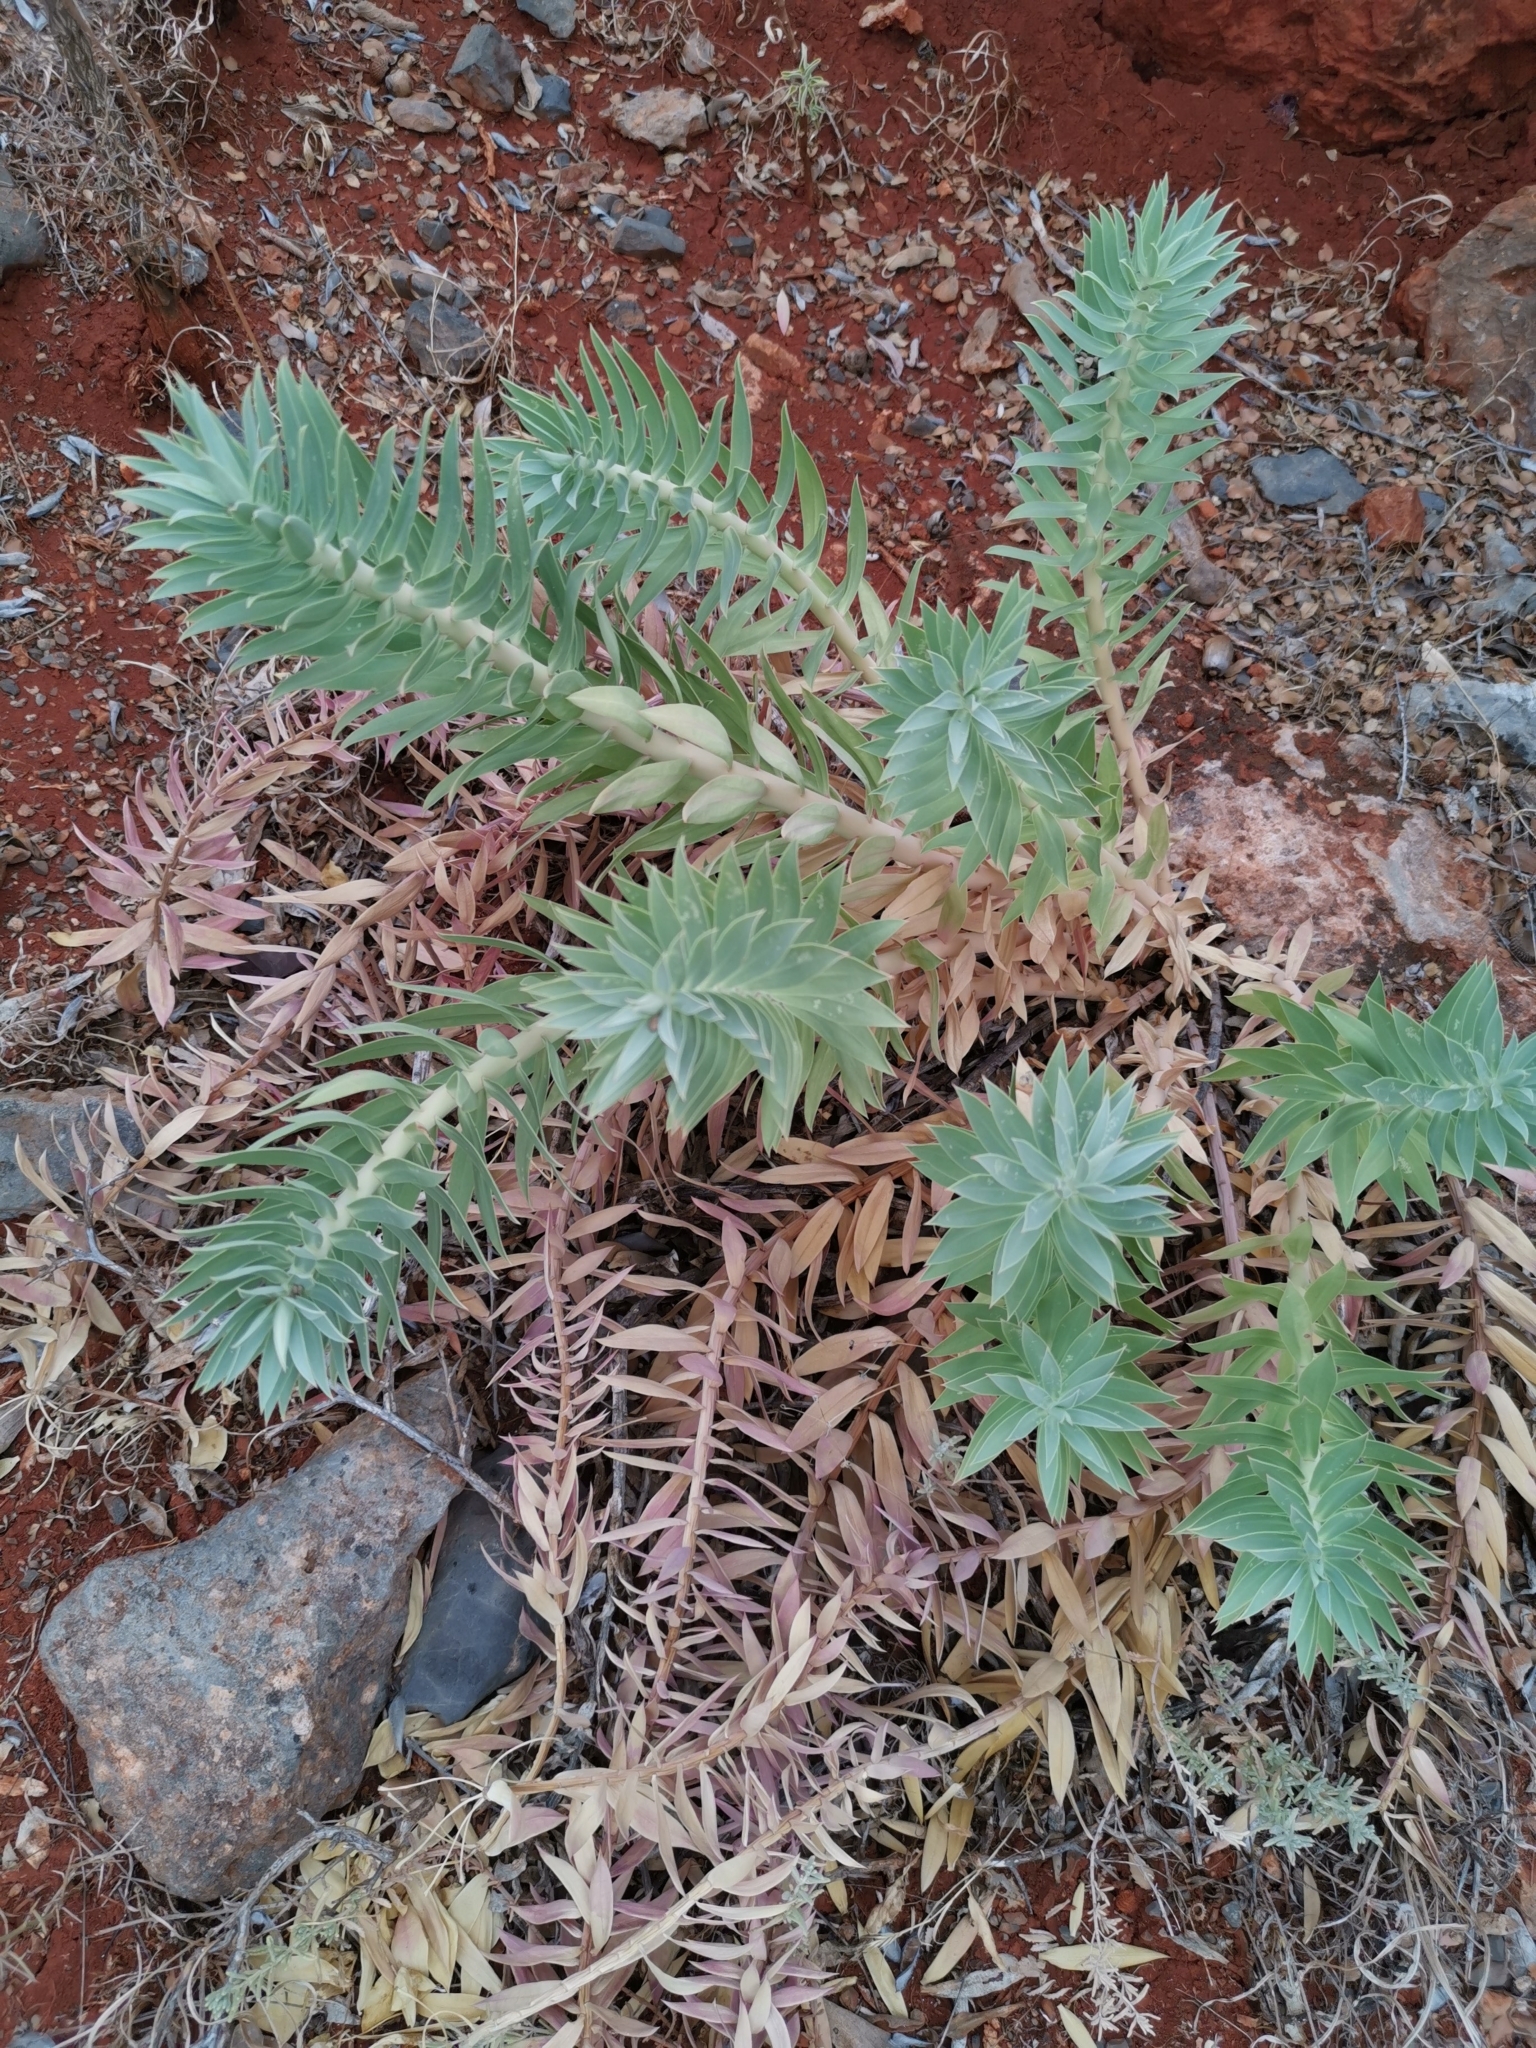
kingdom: Plantae
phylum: Tracheophyta
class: Magnoliopsida
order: Malpighiales
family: Euphorbiaceae
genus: Euphorbia
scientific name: Euphorbia rigida
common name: Upright myrtle spurge
